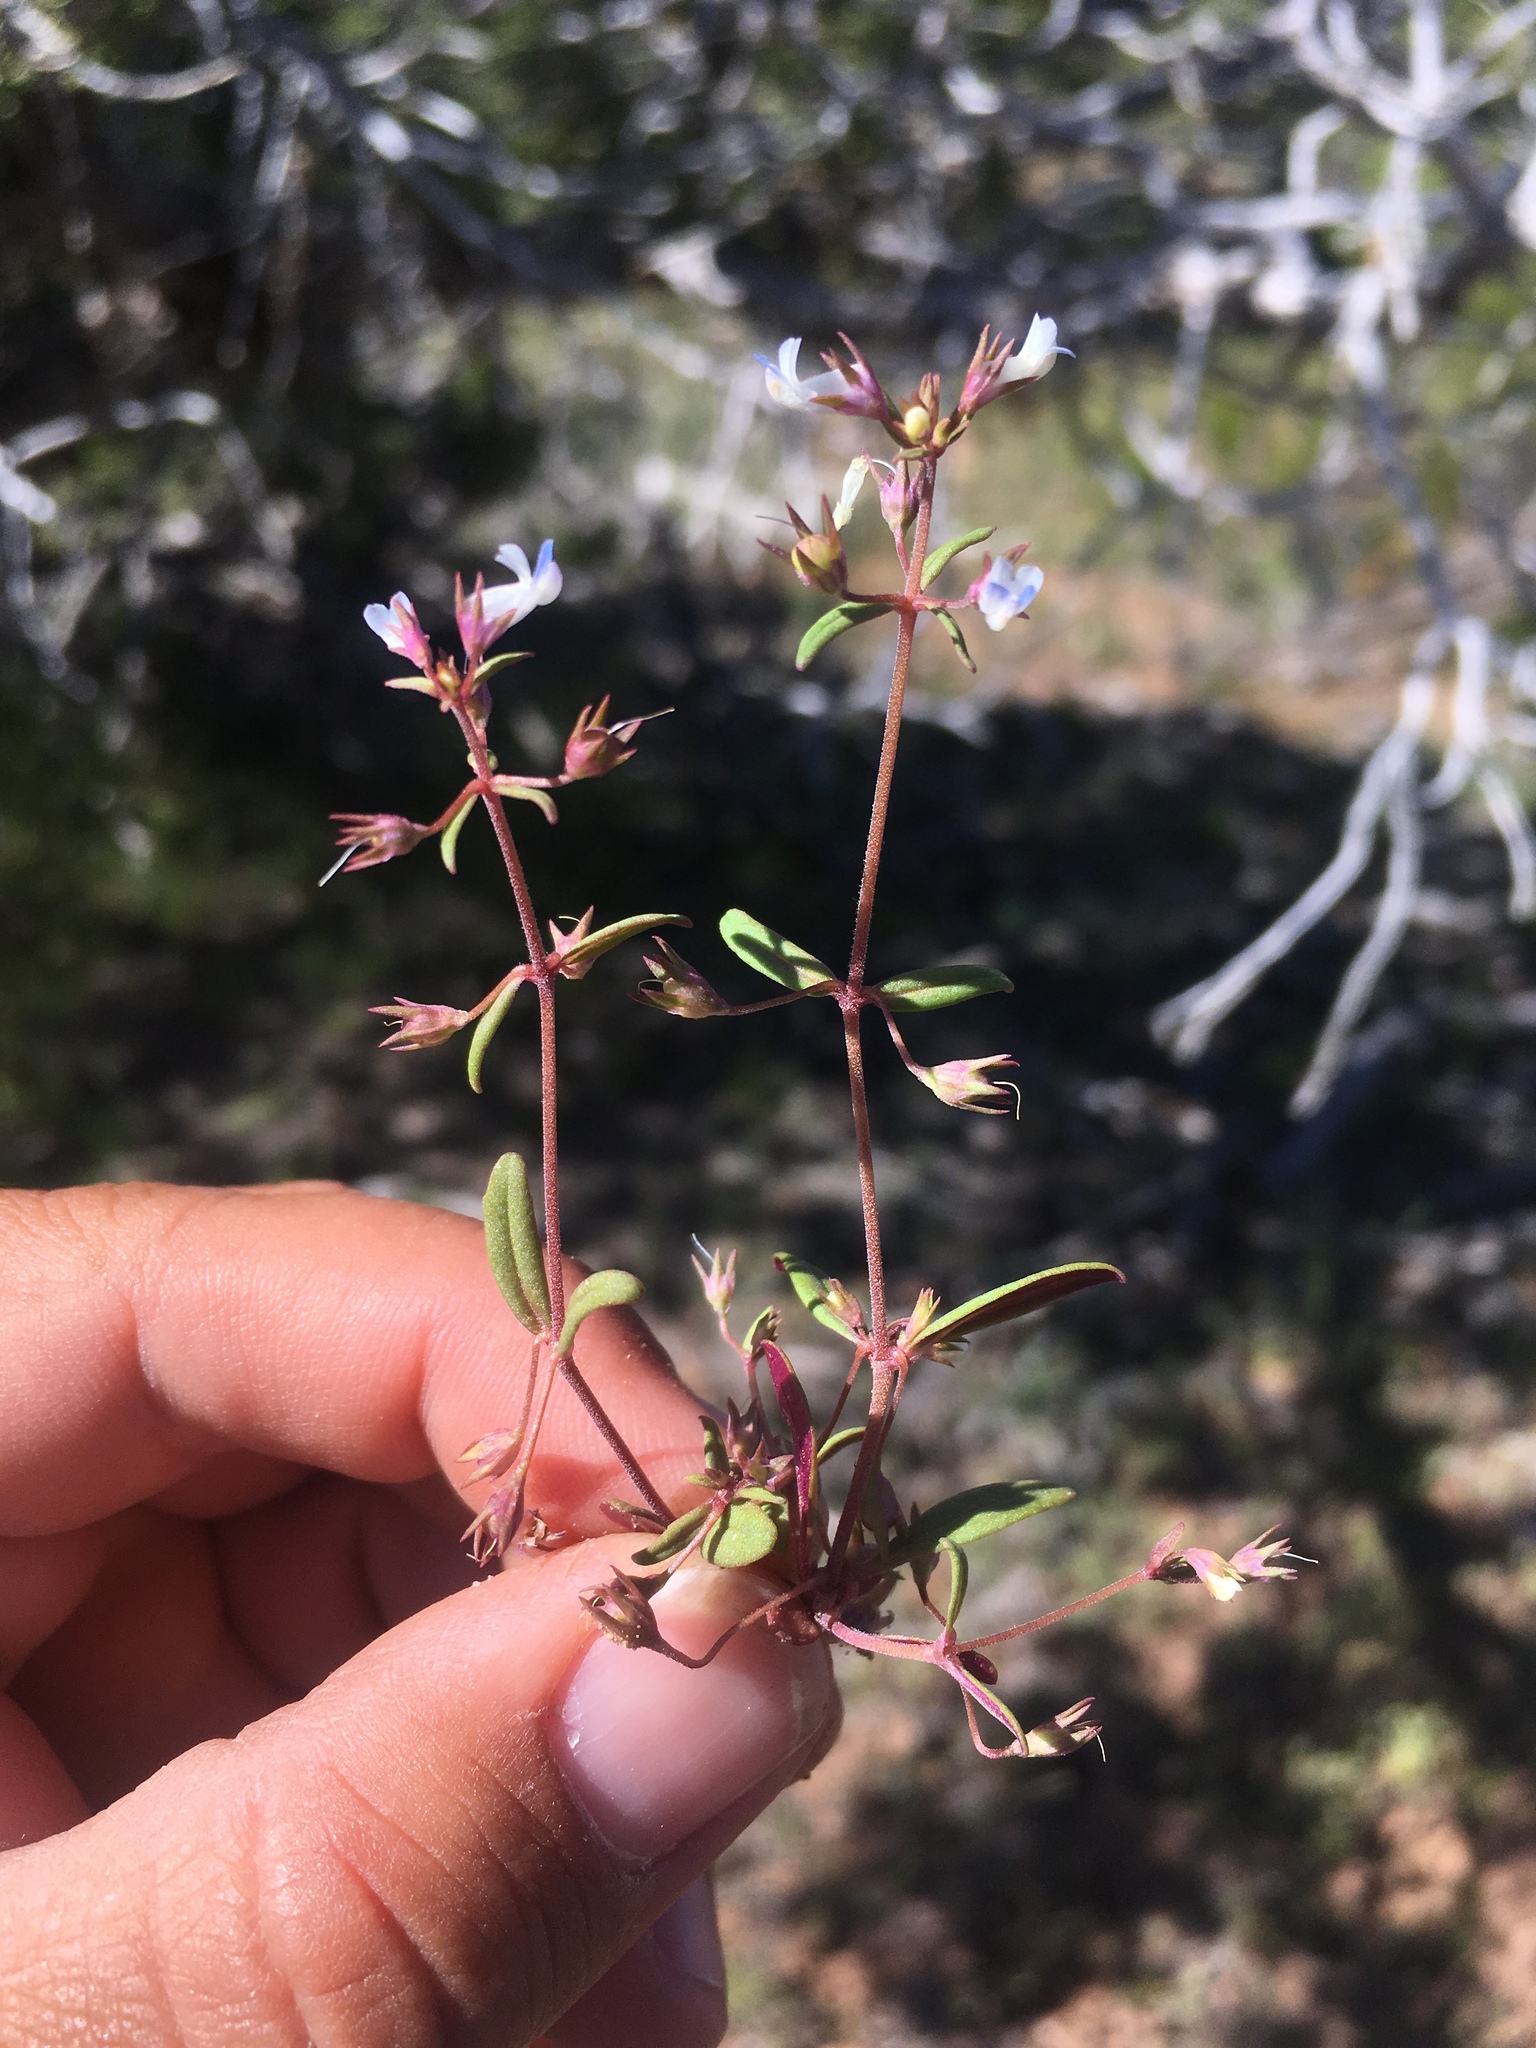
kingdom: Plantae
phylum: Tracheophyta
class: Magnoliopsida
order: Lamiales
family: Plantaginaceae
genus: Collinsia
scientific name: Collinsia parviflora
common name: Blue-lips
